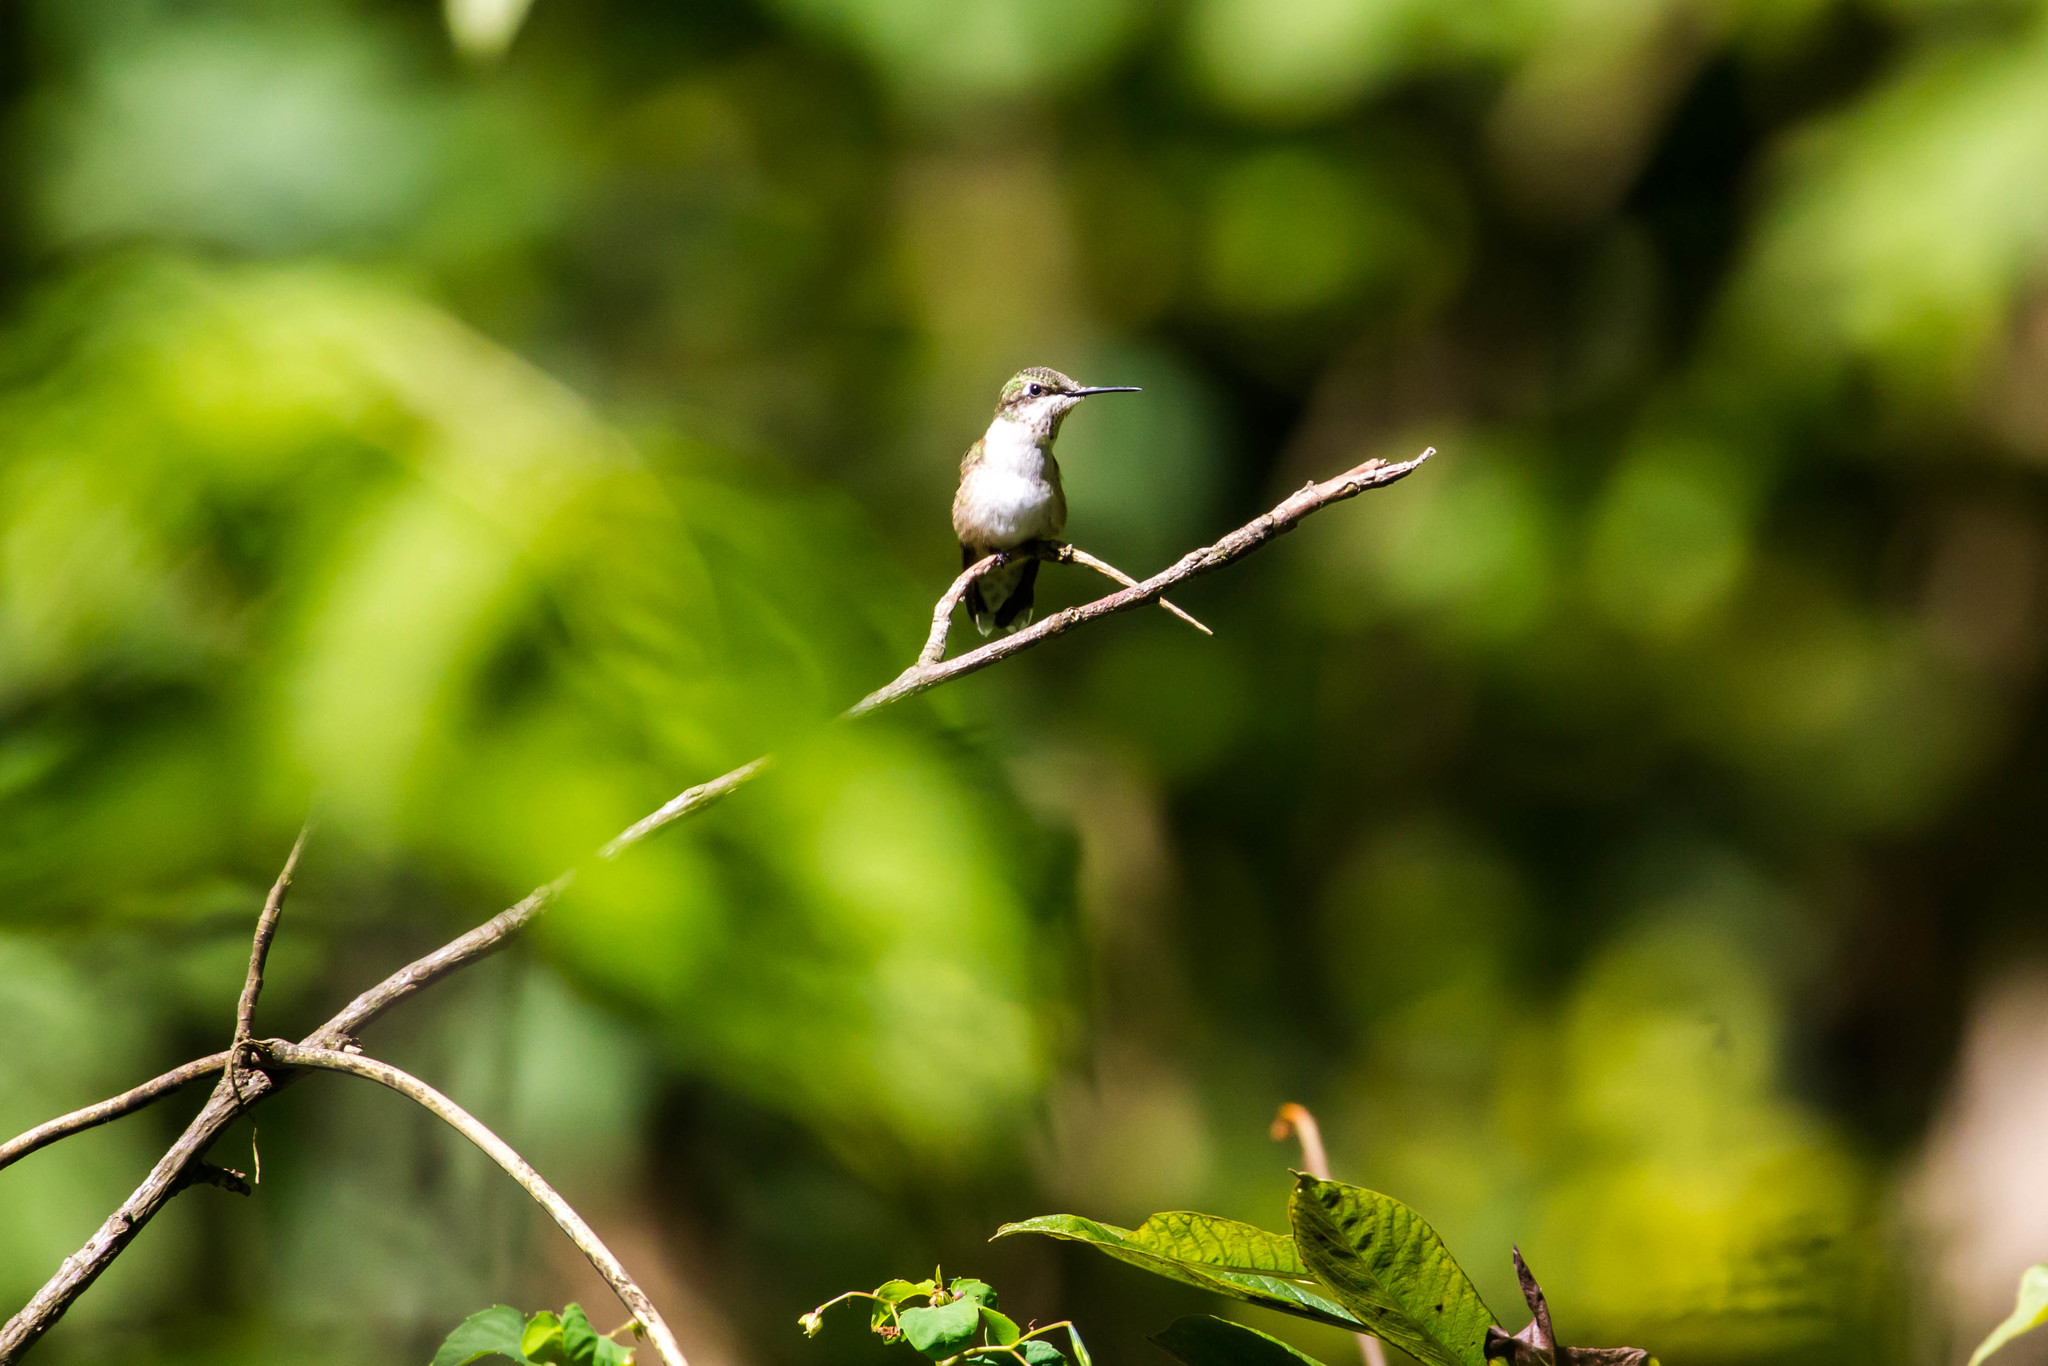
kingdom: Animalia
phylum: Chordata
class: Aves
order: Apodiformes
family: Trochilidae
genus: Archilochus
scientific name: Archilochus colubris
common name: Ruby-throated hummingbird
